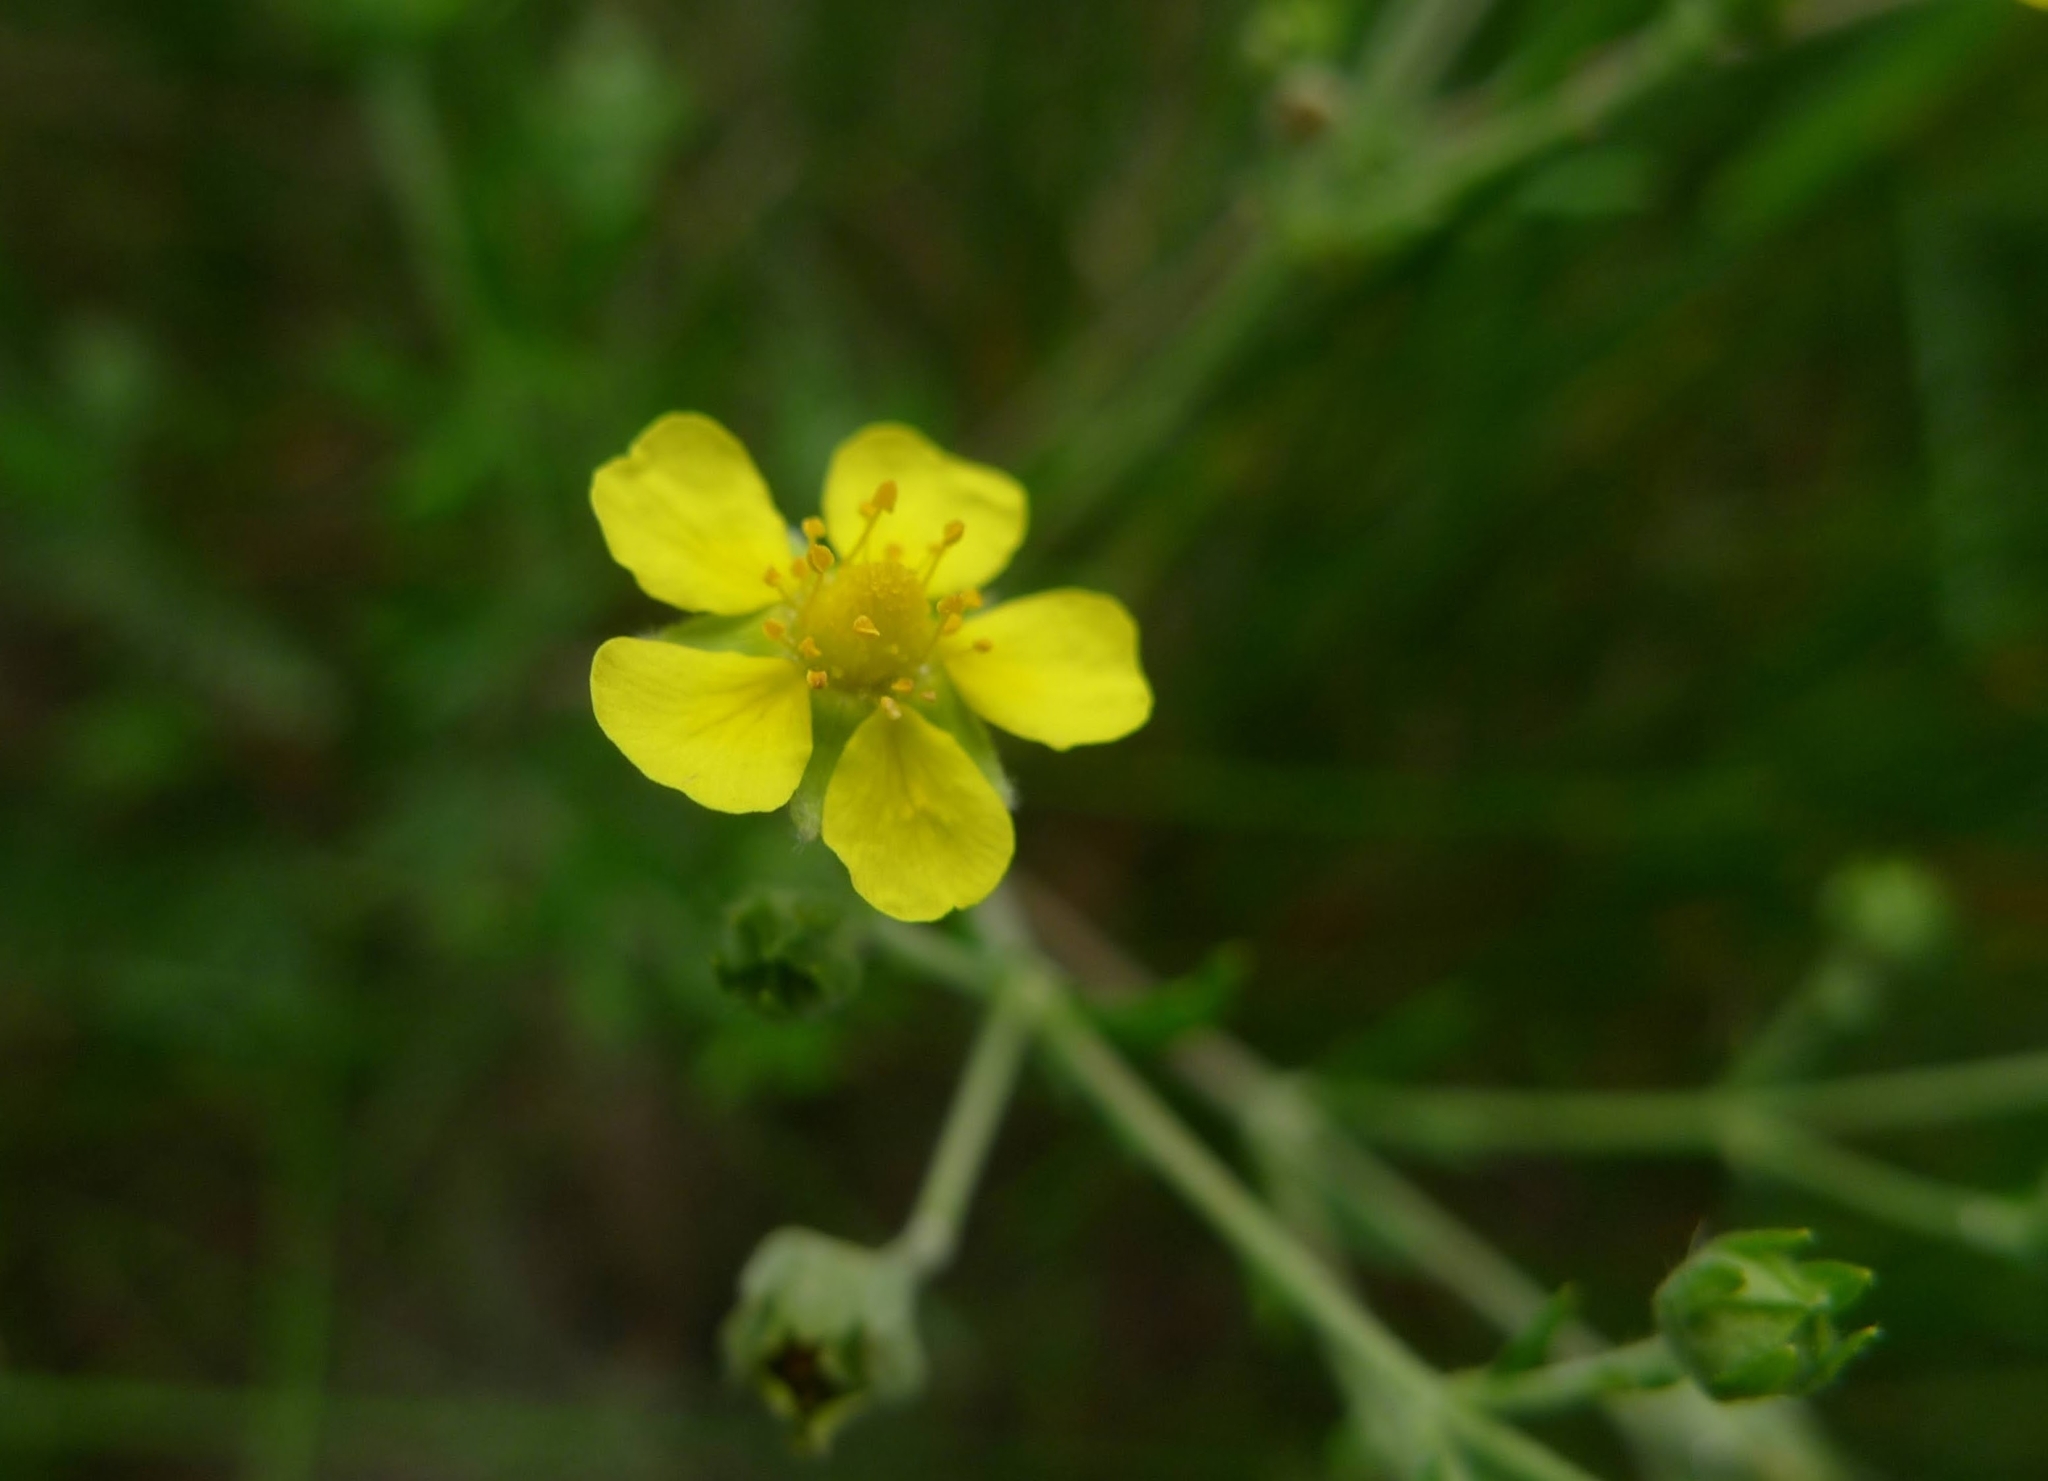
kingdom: Plantae
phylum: Tracheophyta
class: Magnoliopsida
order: Rosales
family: Rosaceae
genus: Potentilla
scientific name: Potentilla argentea
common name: Hoary cinquefoil
